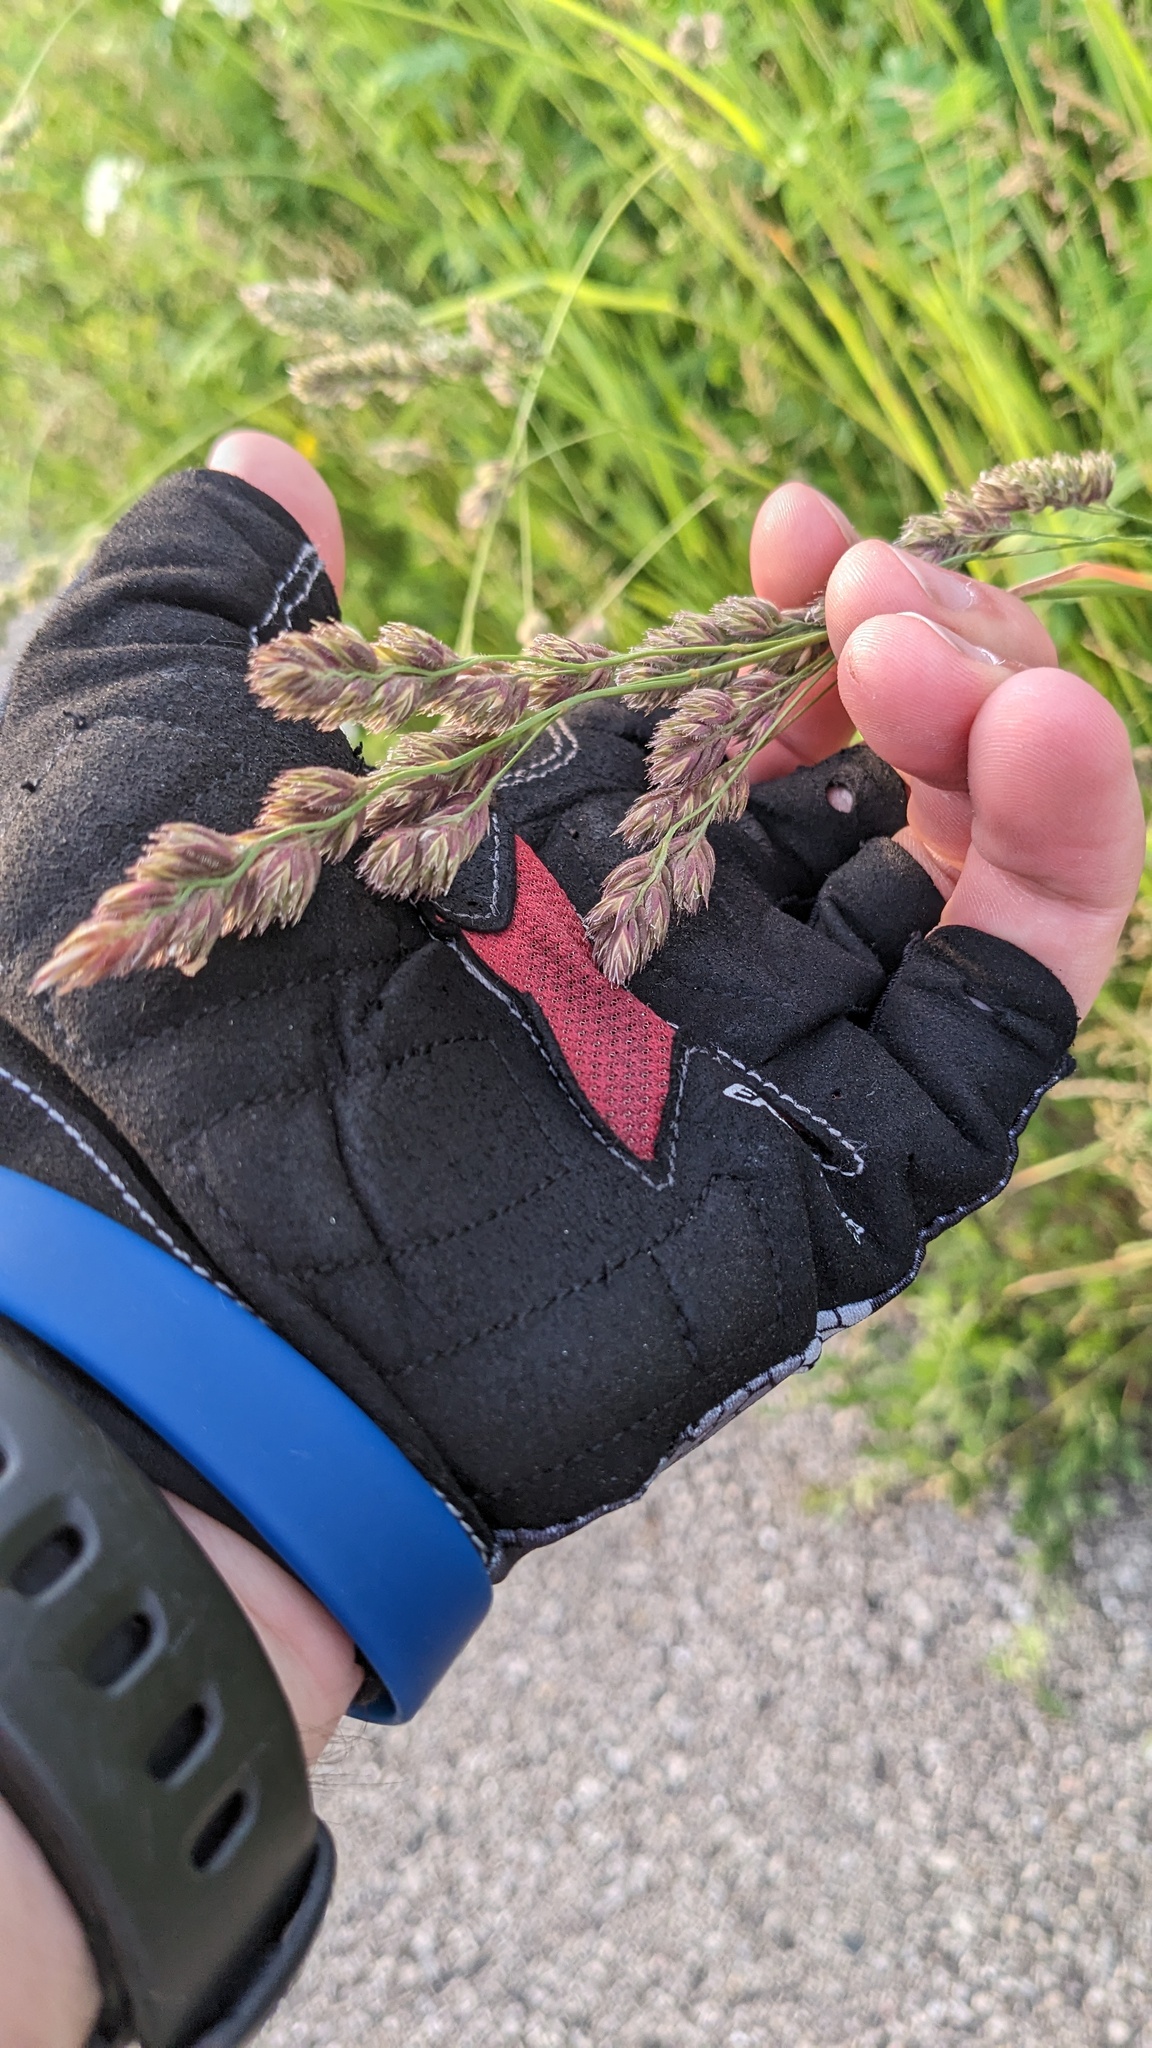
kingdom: Plantae
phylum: Tracheophyta
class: Liliopsida
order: Poales
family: Poaceae
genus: Dactylis
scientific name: Dactylis glomerata
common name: Orchardgrass
